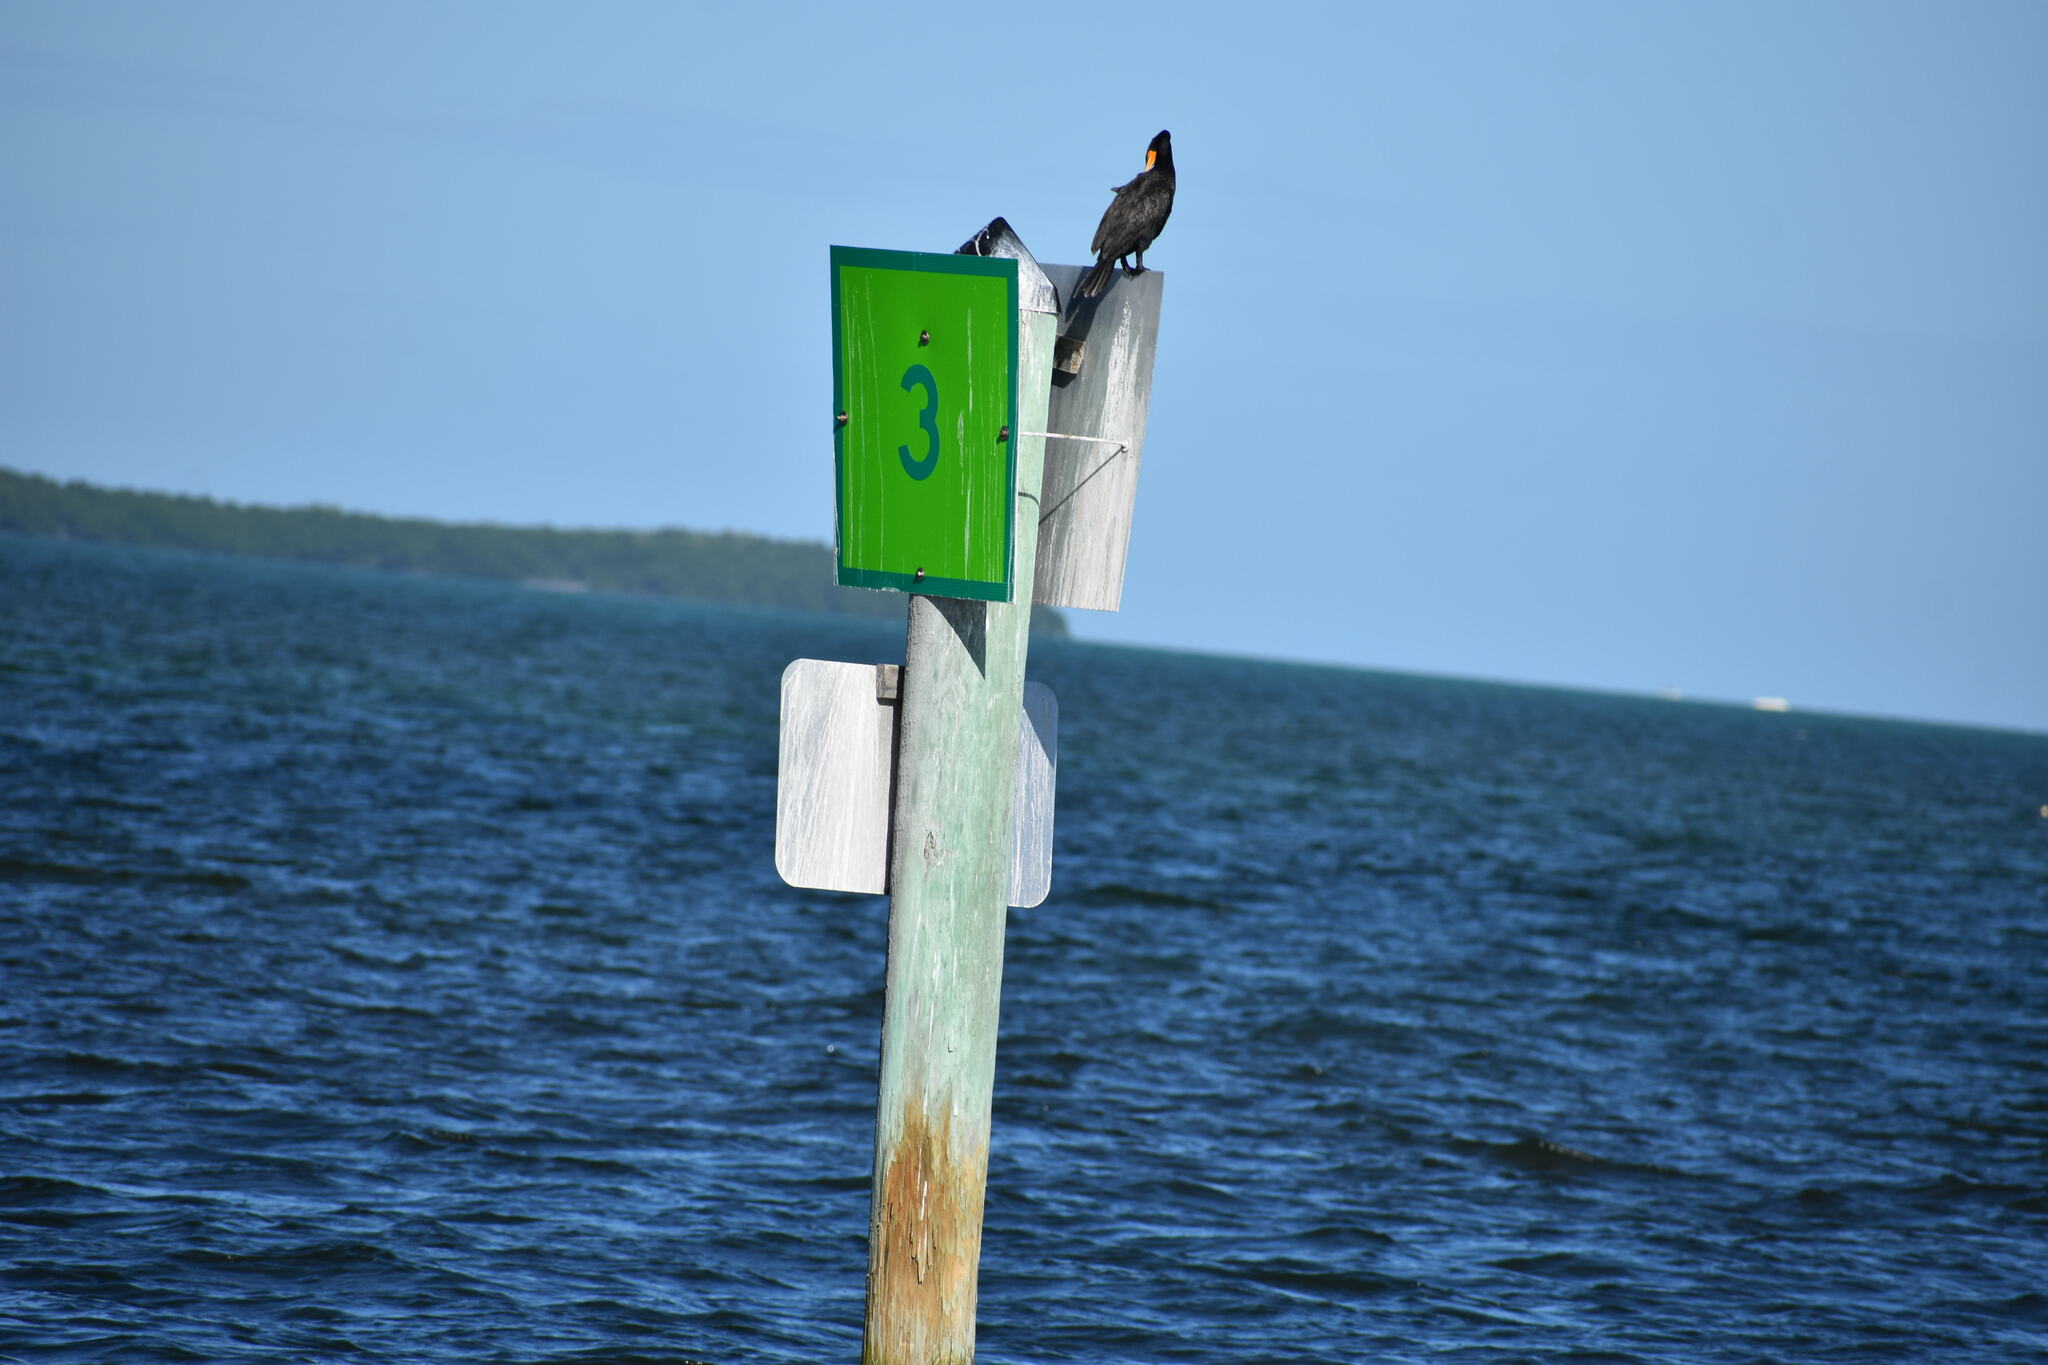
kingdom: Animalia
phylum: Chordata
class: Aves
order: Suliformes
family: Phalacrocoracidae
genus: Phalacrocorax
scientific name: Phalacrocorax auritus
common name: Double-crested cormorant
